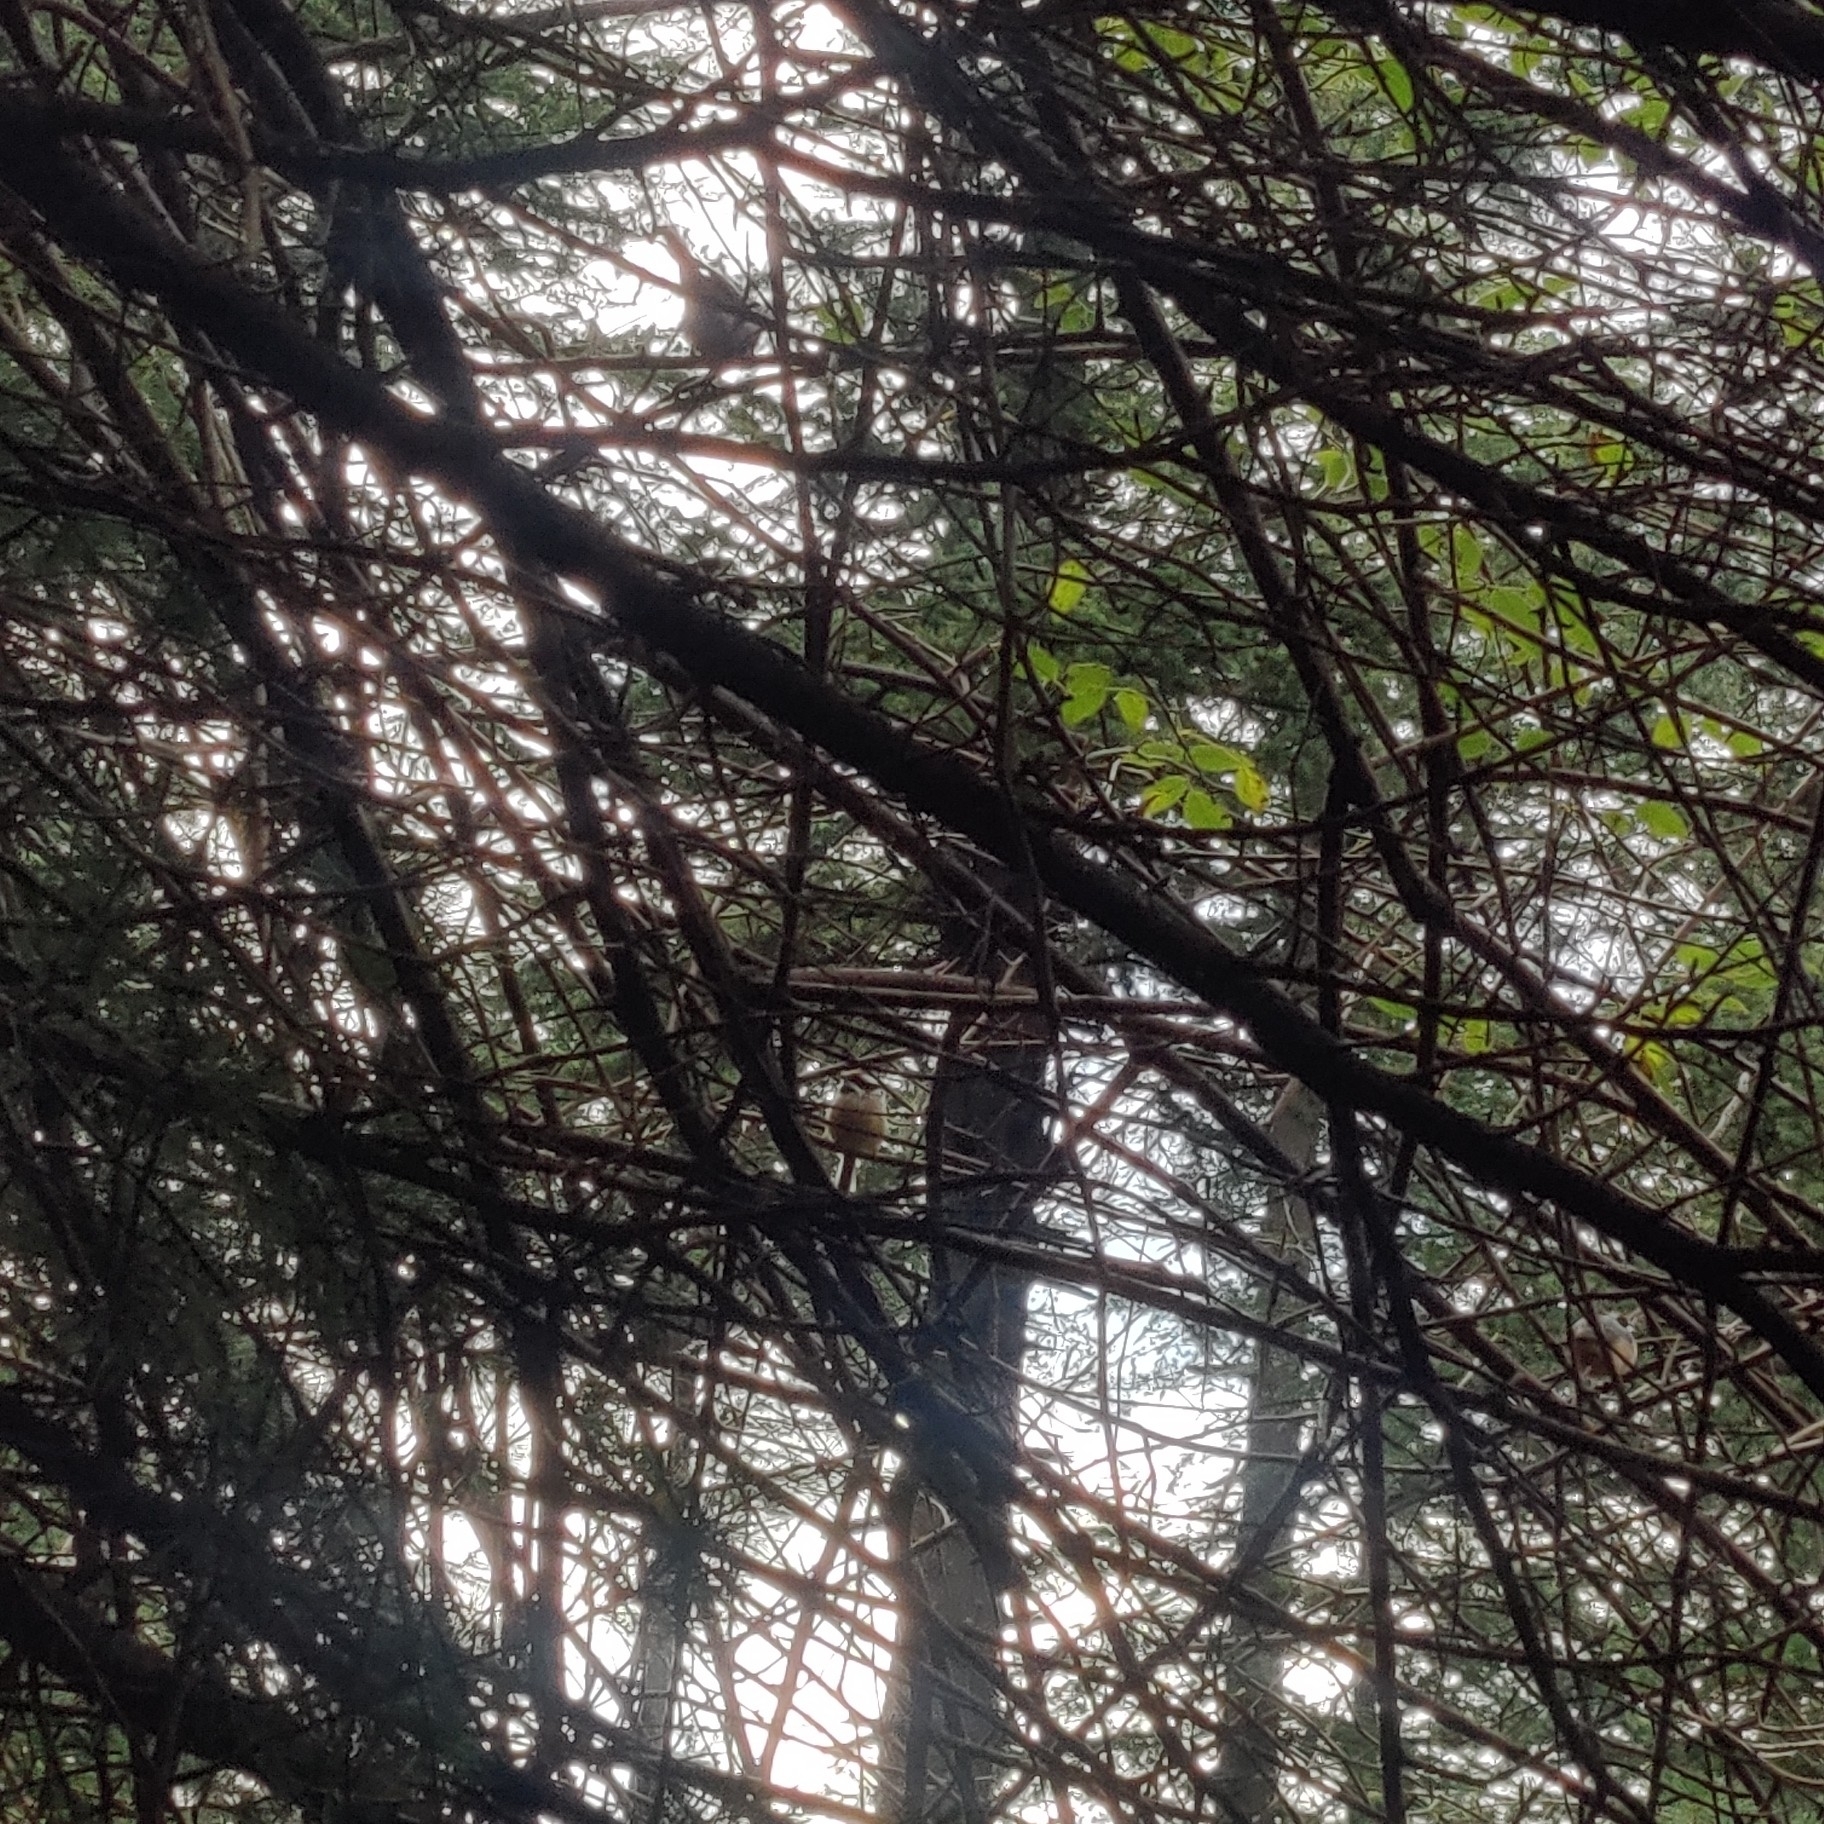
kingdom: Animalia
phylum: Chordata
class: Aves
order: Passeriformes
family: Aegithalidae
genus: Aegithalos
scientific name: Aegithalos concinnus
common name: Black-throated bushtit
